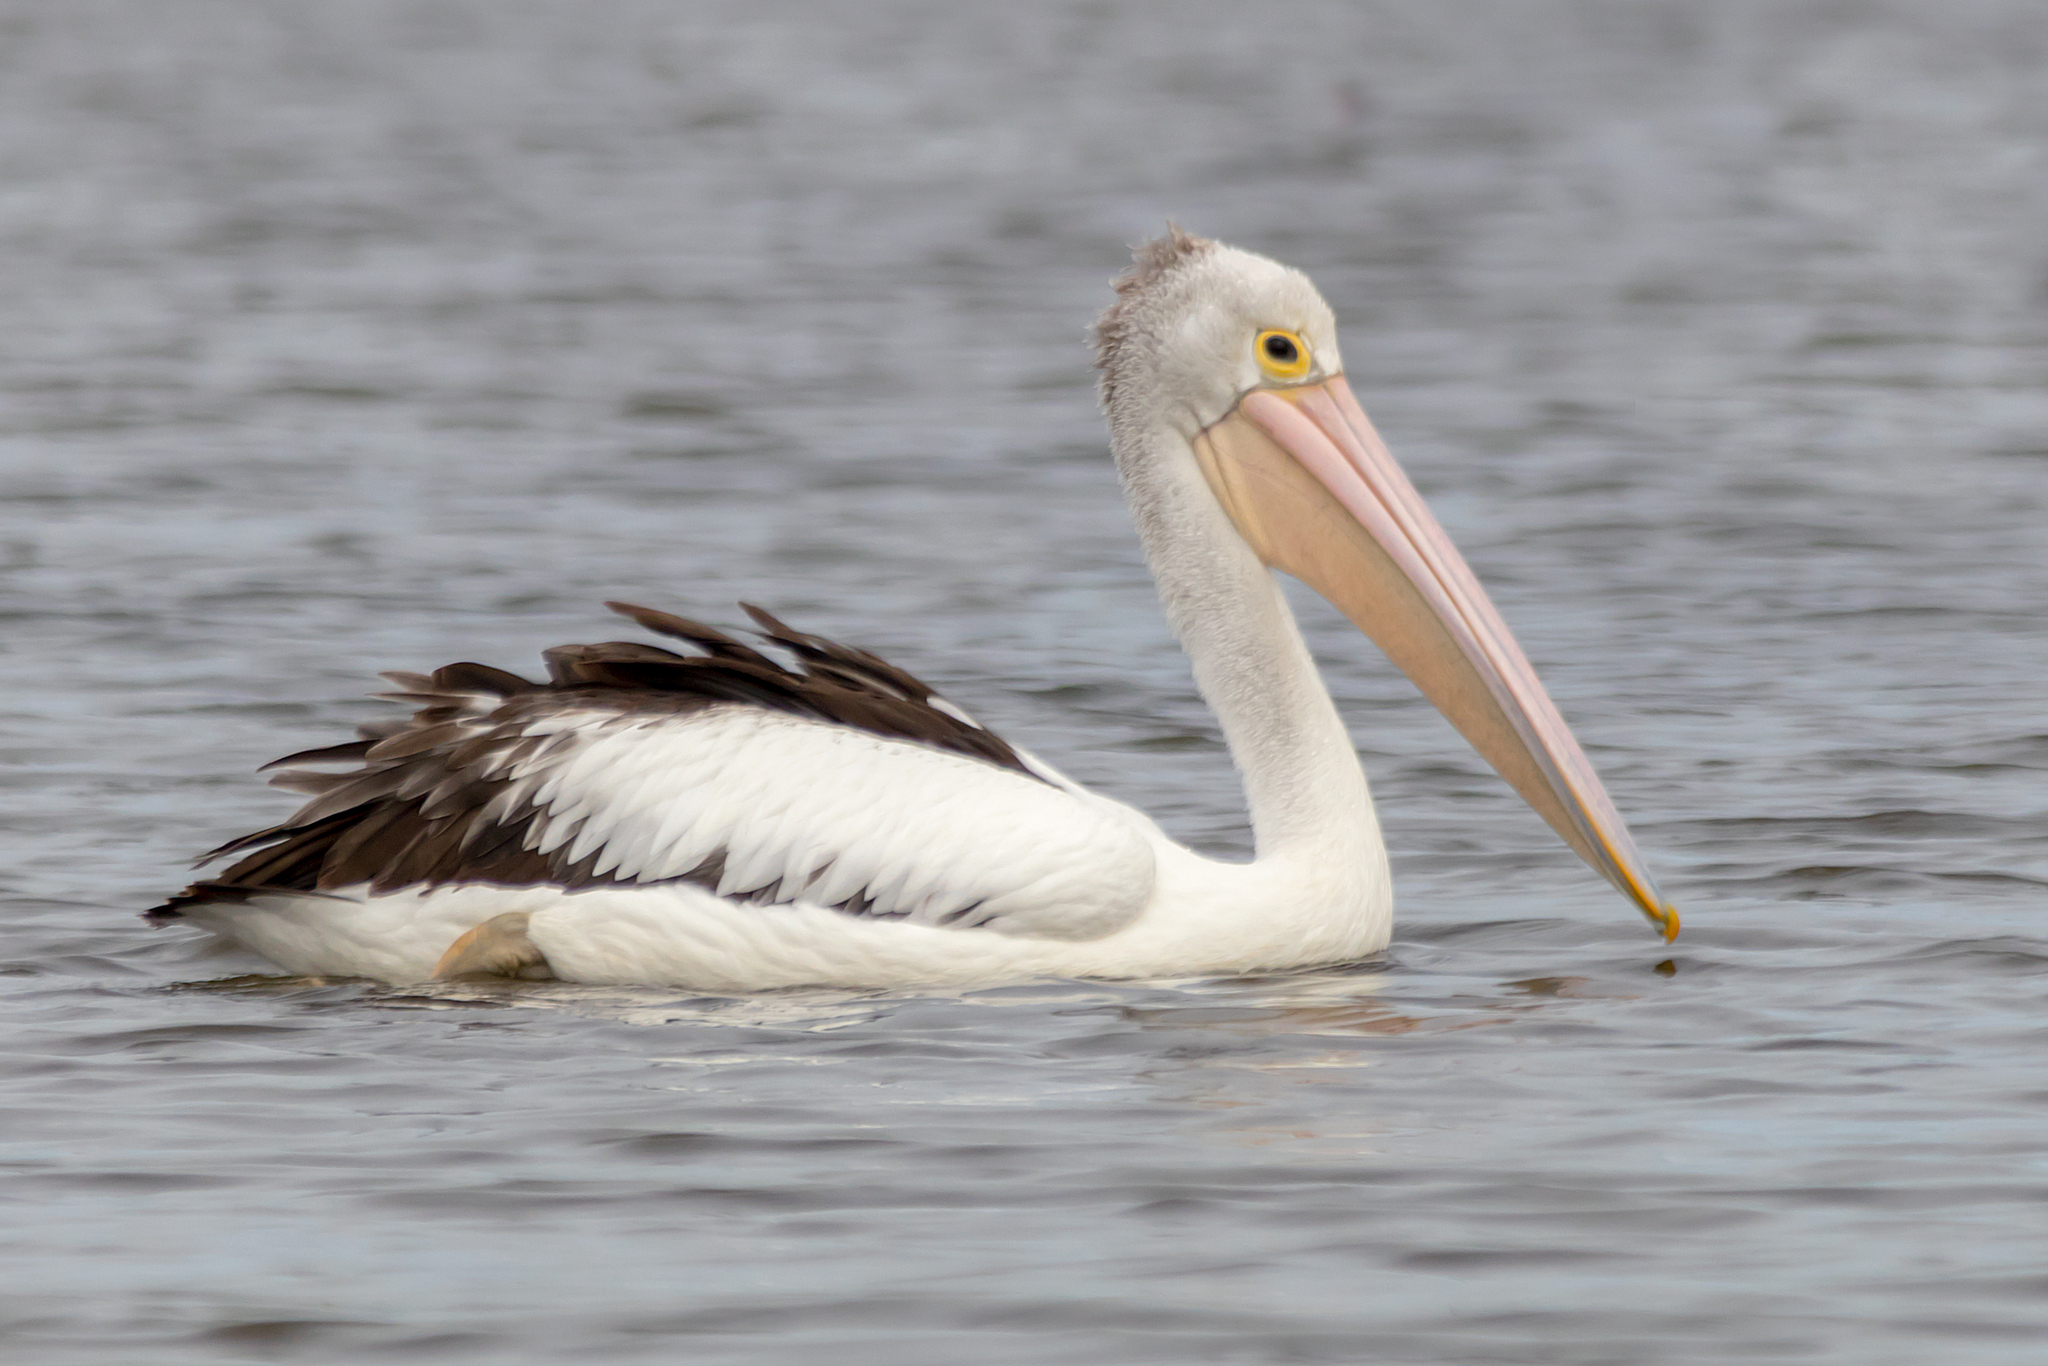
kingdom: Animalia
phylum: Chordata
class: Aves
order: Pelecaniformes
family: Pelecanidae
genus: Pelecanus
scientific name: Pelecanus conspicillatus
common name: Australian pelican
